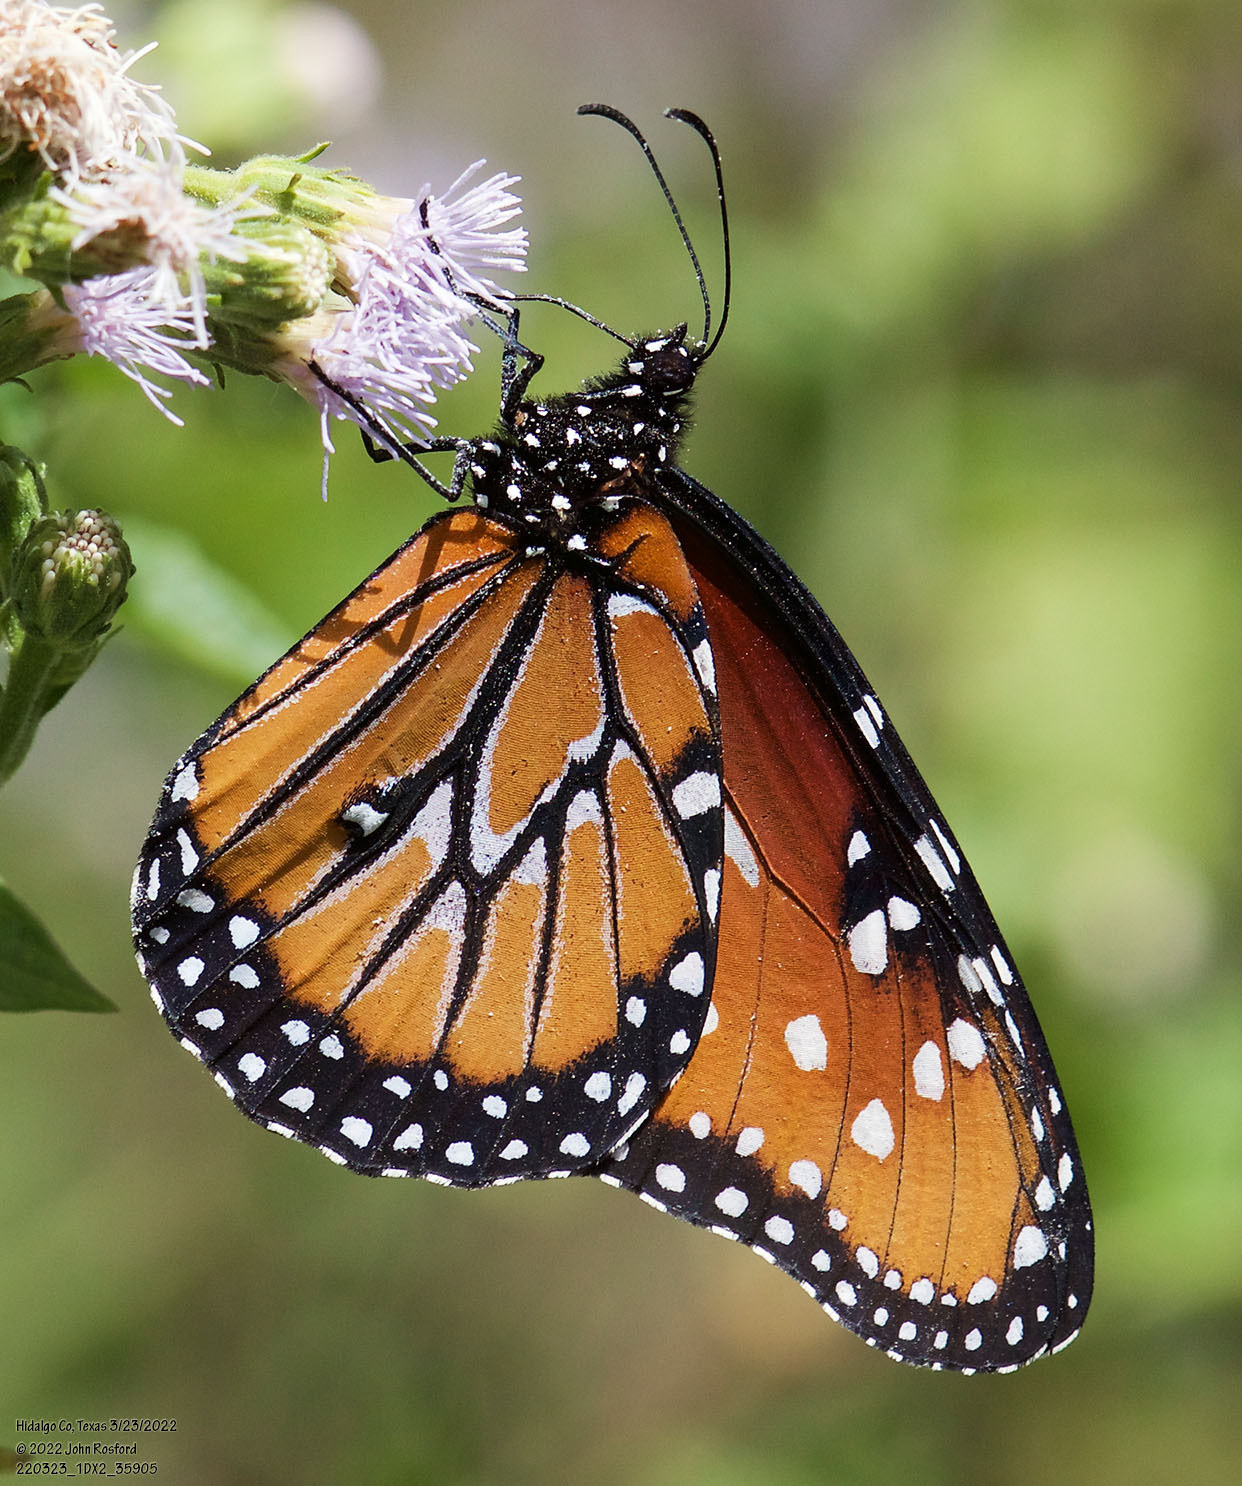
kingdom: Animalia
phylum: Arthropoda
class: Insecta
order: Lepidoptera
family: Nymphalidae
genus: Danaus
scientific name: Danaus gilippus
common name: Queen
